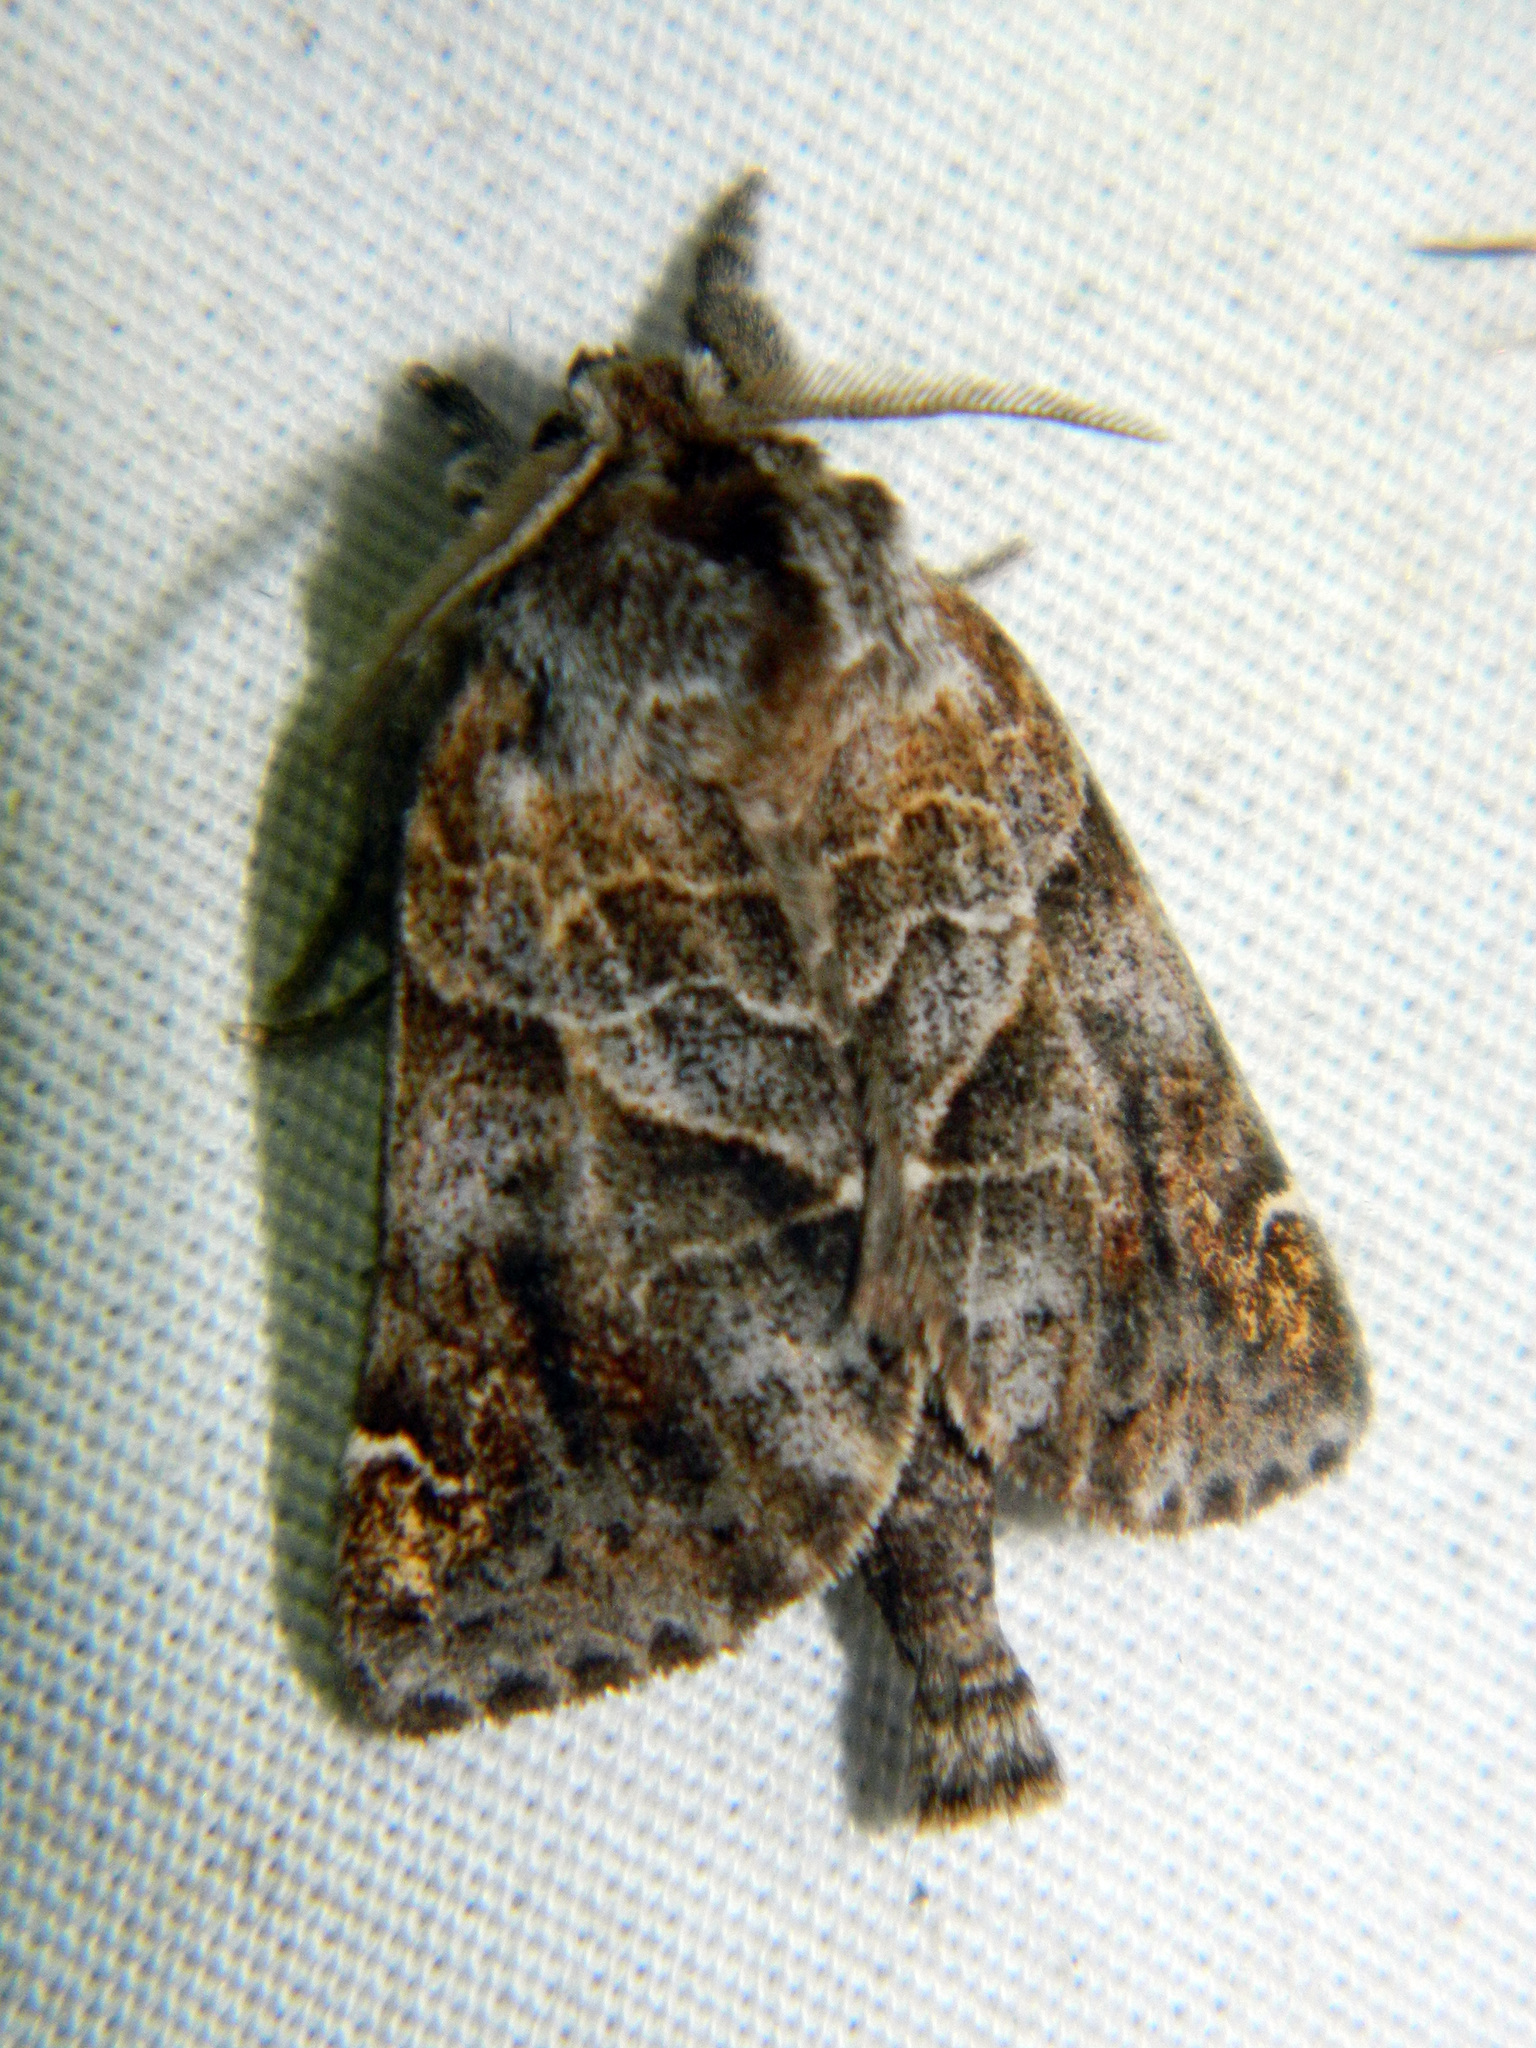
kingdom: Animalia
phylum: Arthropoda
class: Insecta
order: Lepidoptera
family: Notodontidae
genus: Clostera
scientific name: Clostera strigosa
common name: Striped chocolate-tip moth
